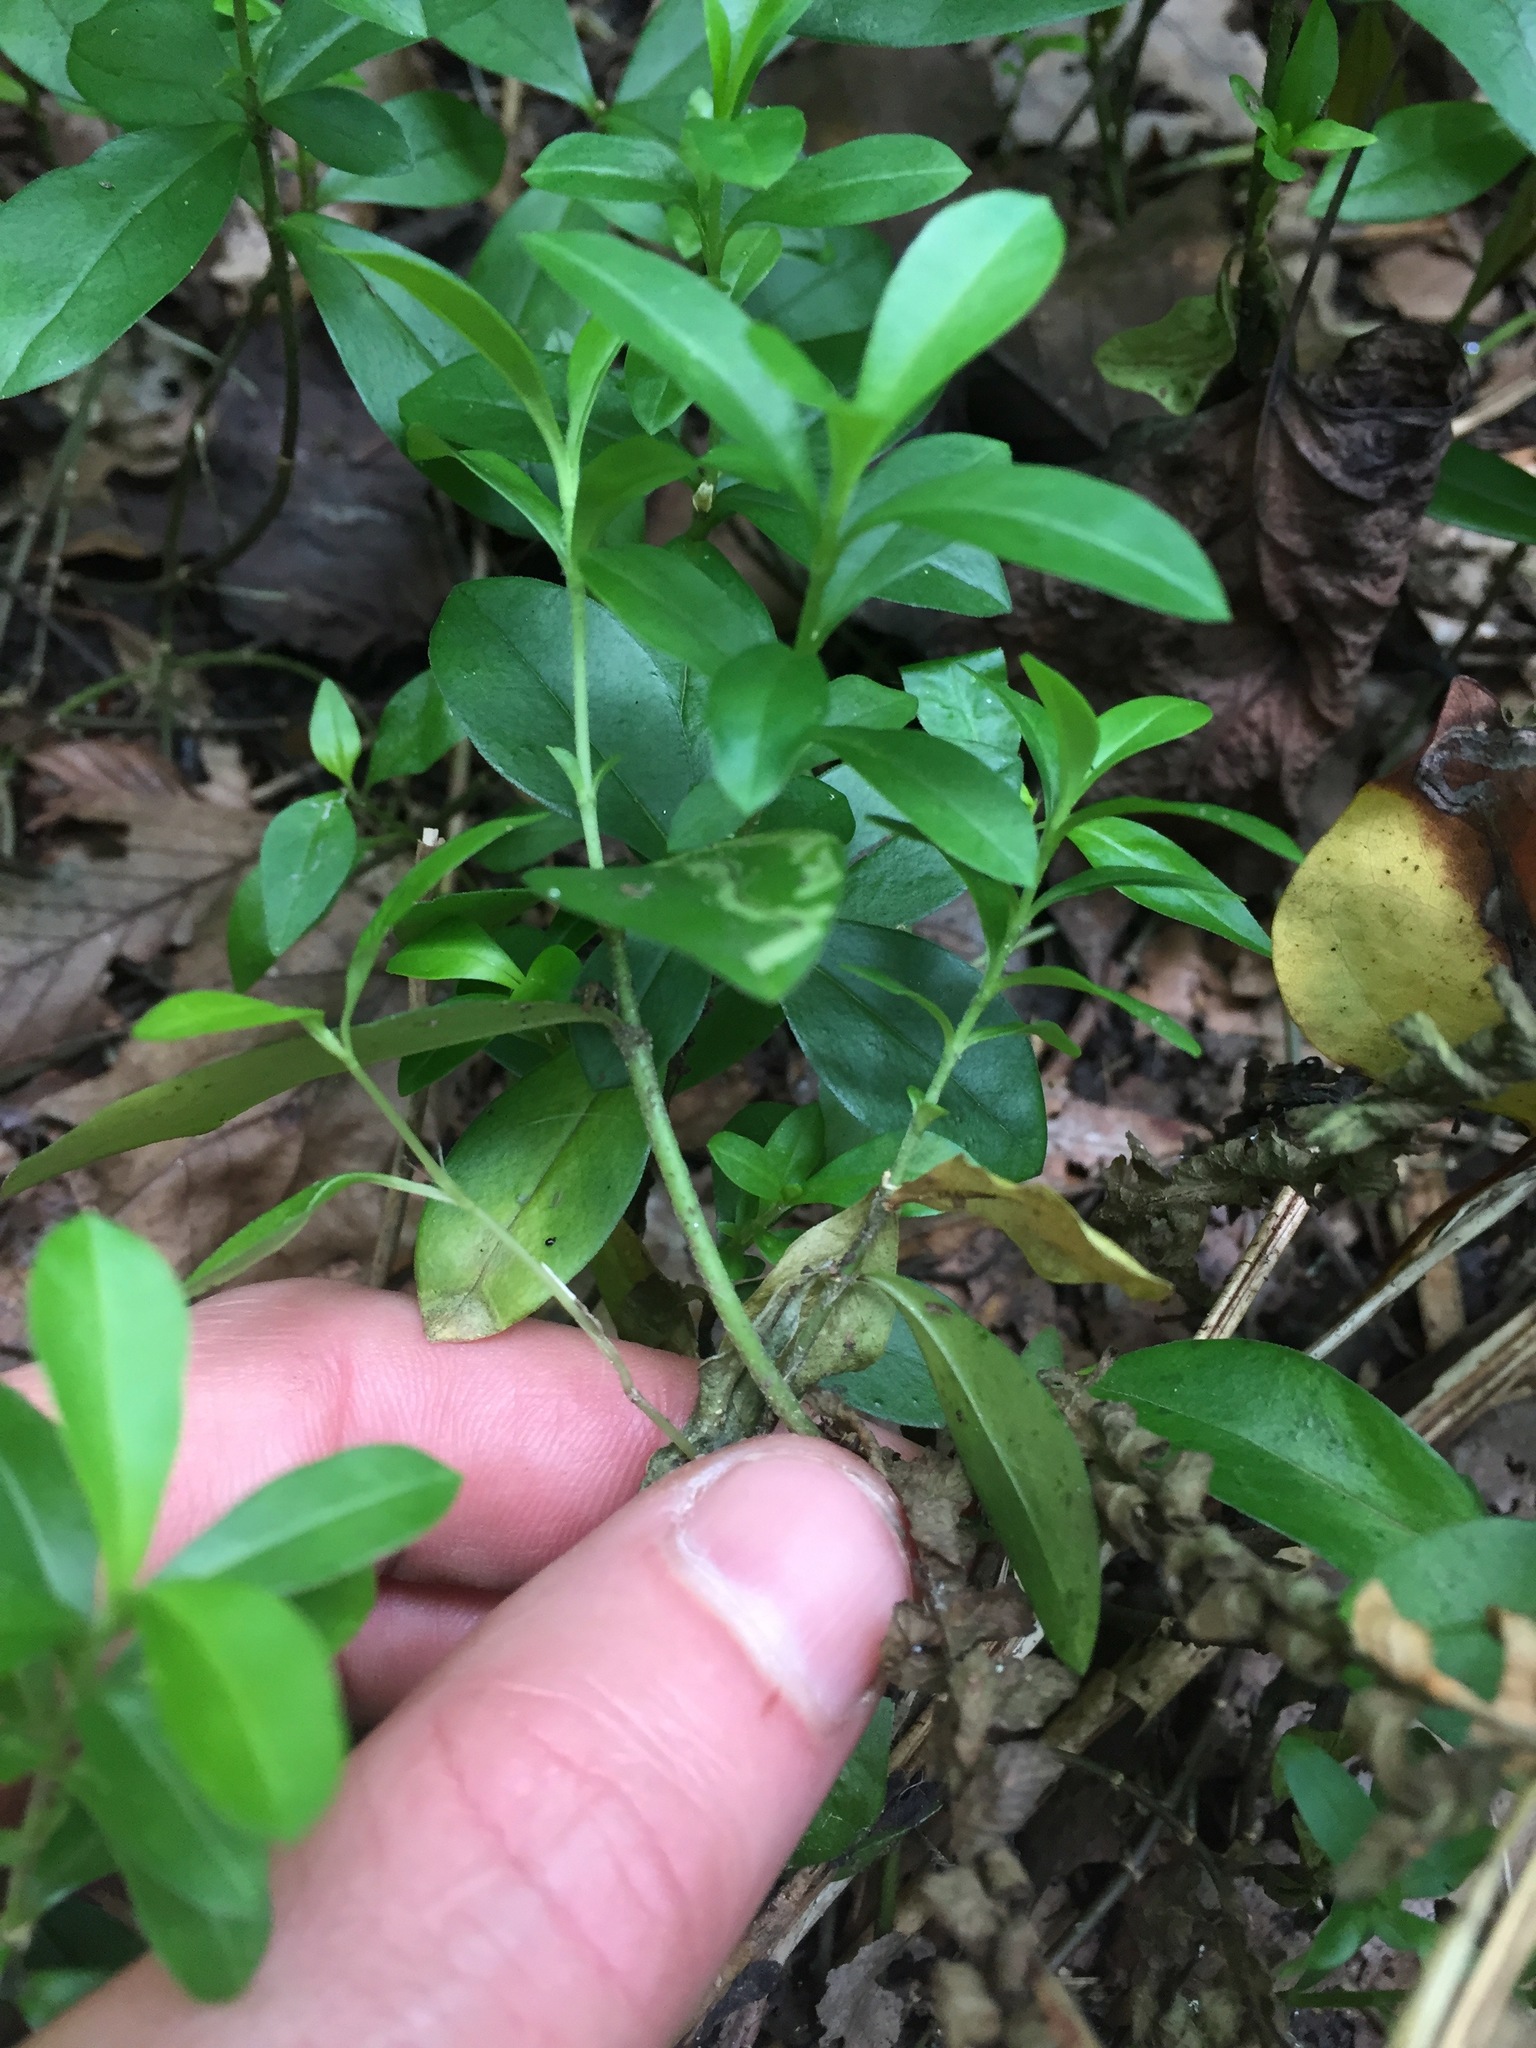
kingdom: Plantae
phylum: Tracheophyta
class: Magnoliopsida
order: Ericales
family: Polemoniaceae
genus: Phlox
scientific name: Phlox divaricata
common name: Blue phlox
